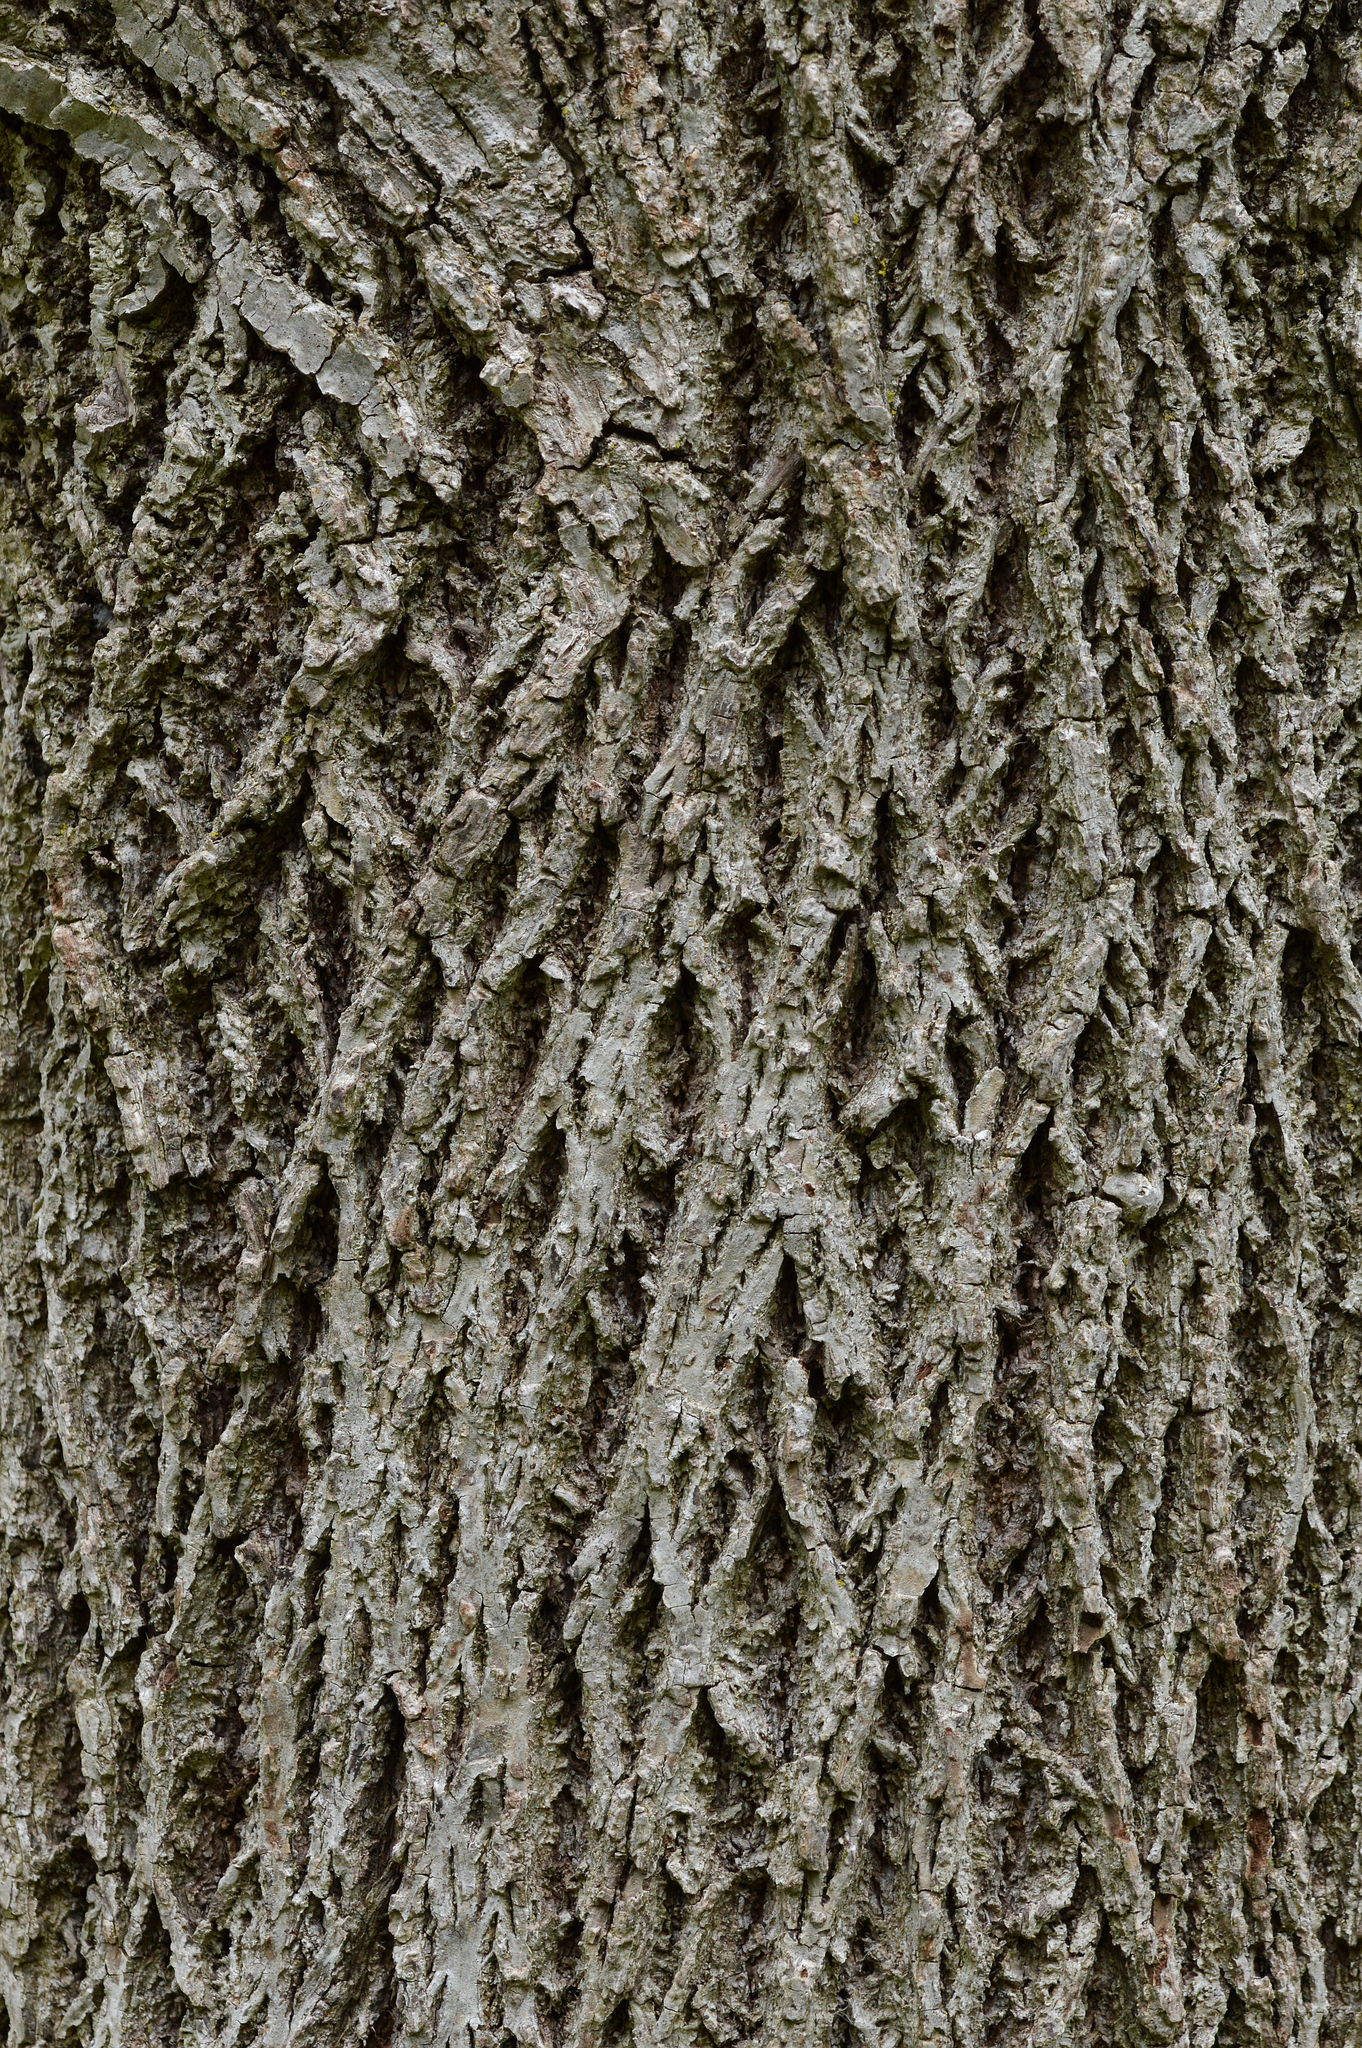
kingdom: Plantae
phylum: Tracheophyta
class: Magnoliopsida
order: Fagales
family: Juglandaceae
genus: Juglans
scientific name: Juglans nigra
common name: Black walnut
